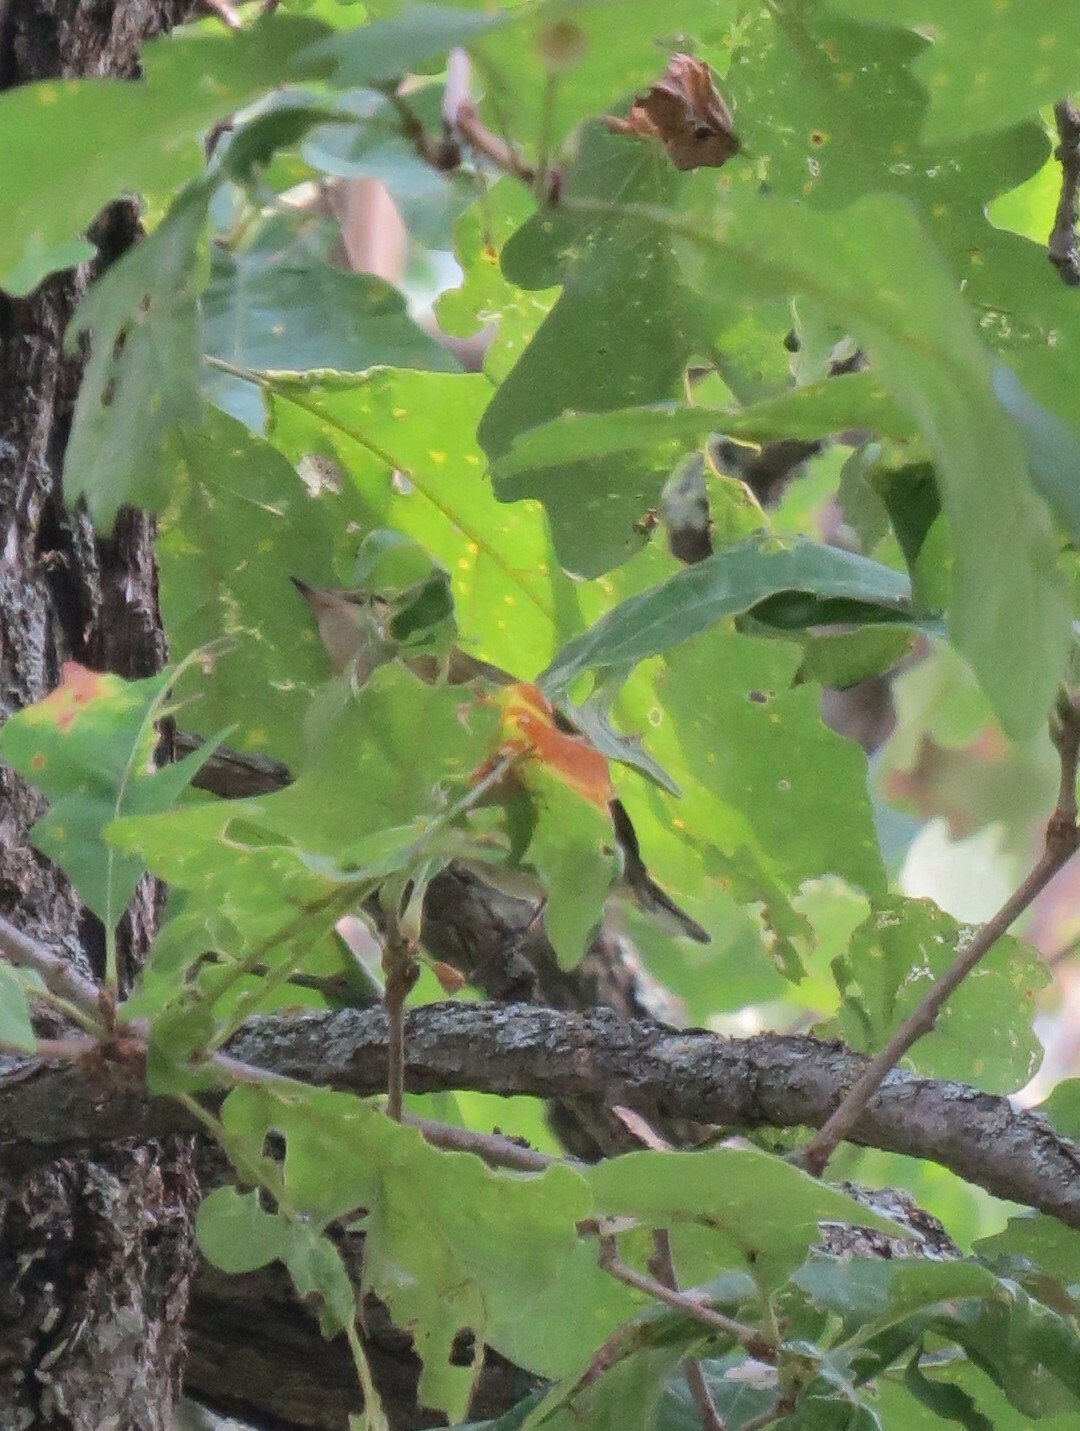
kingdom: Animalia
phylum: Chordata
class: Aves
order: Passeriformes
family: Parulidae
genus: Setophaga
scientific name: Setophaga castanea
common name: Bay-breasted warbler
